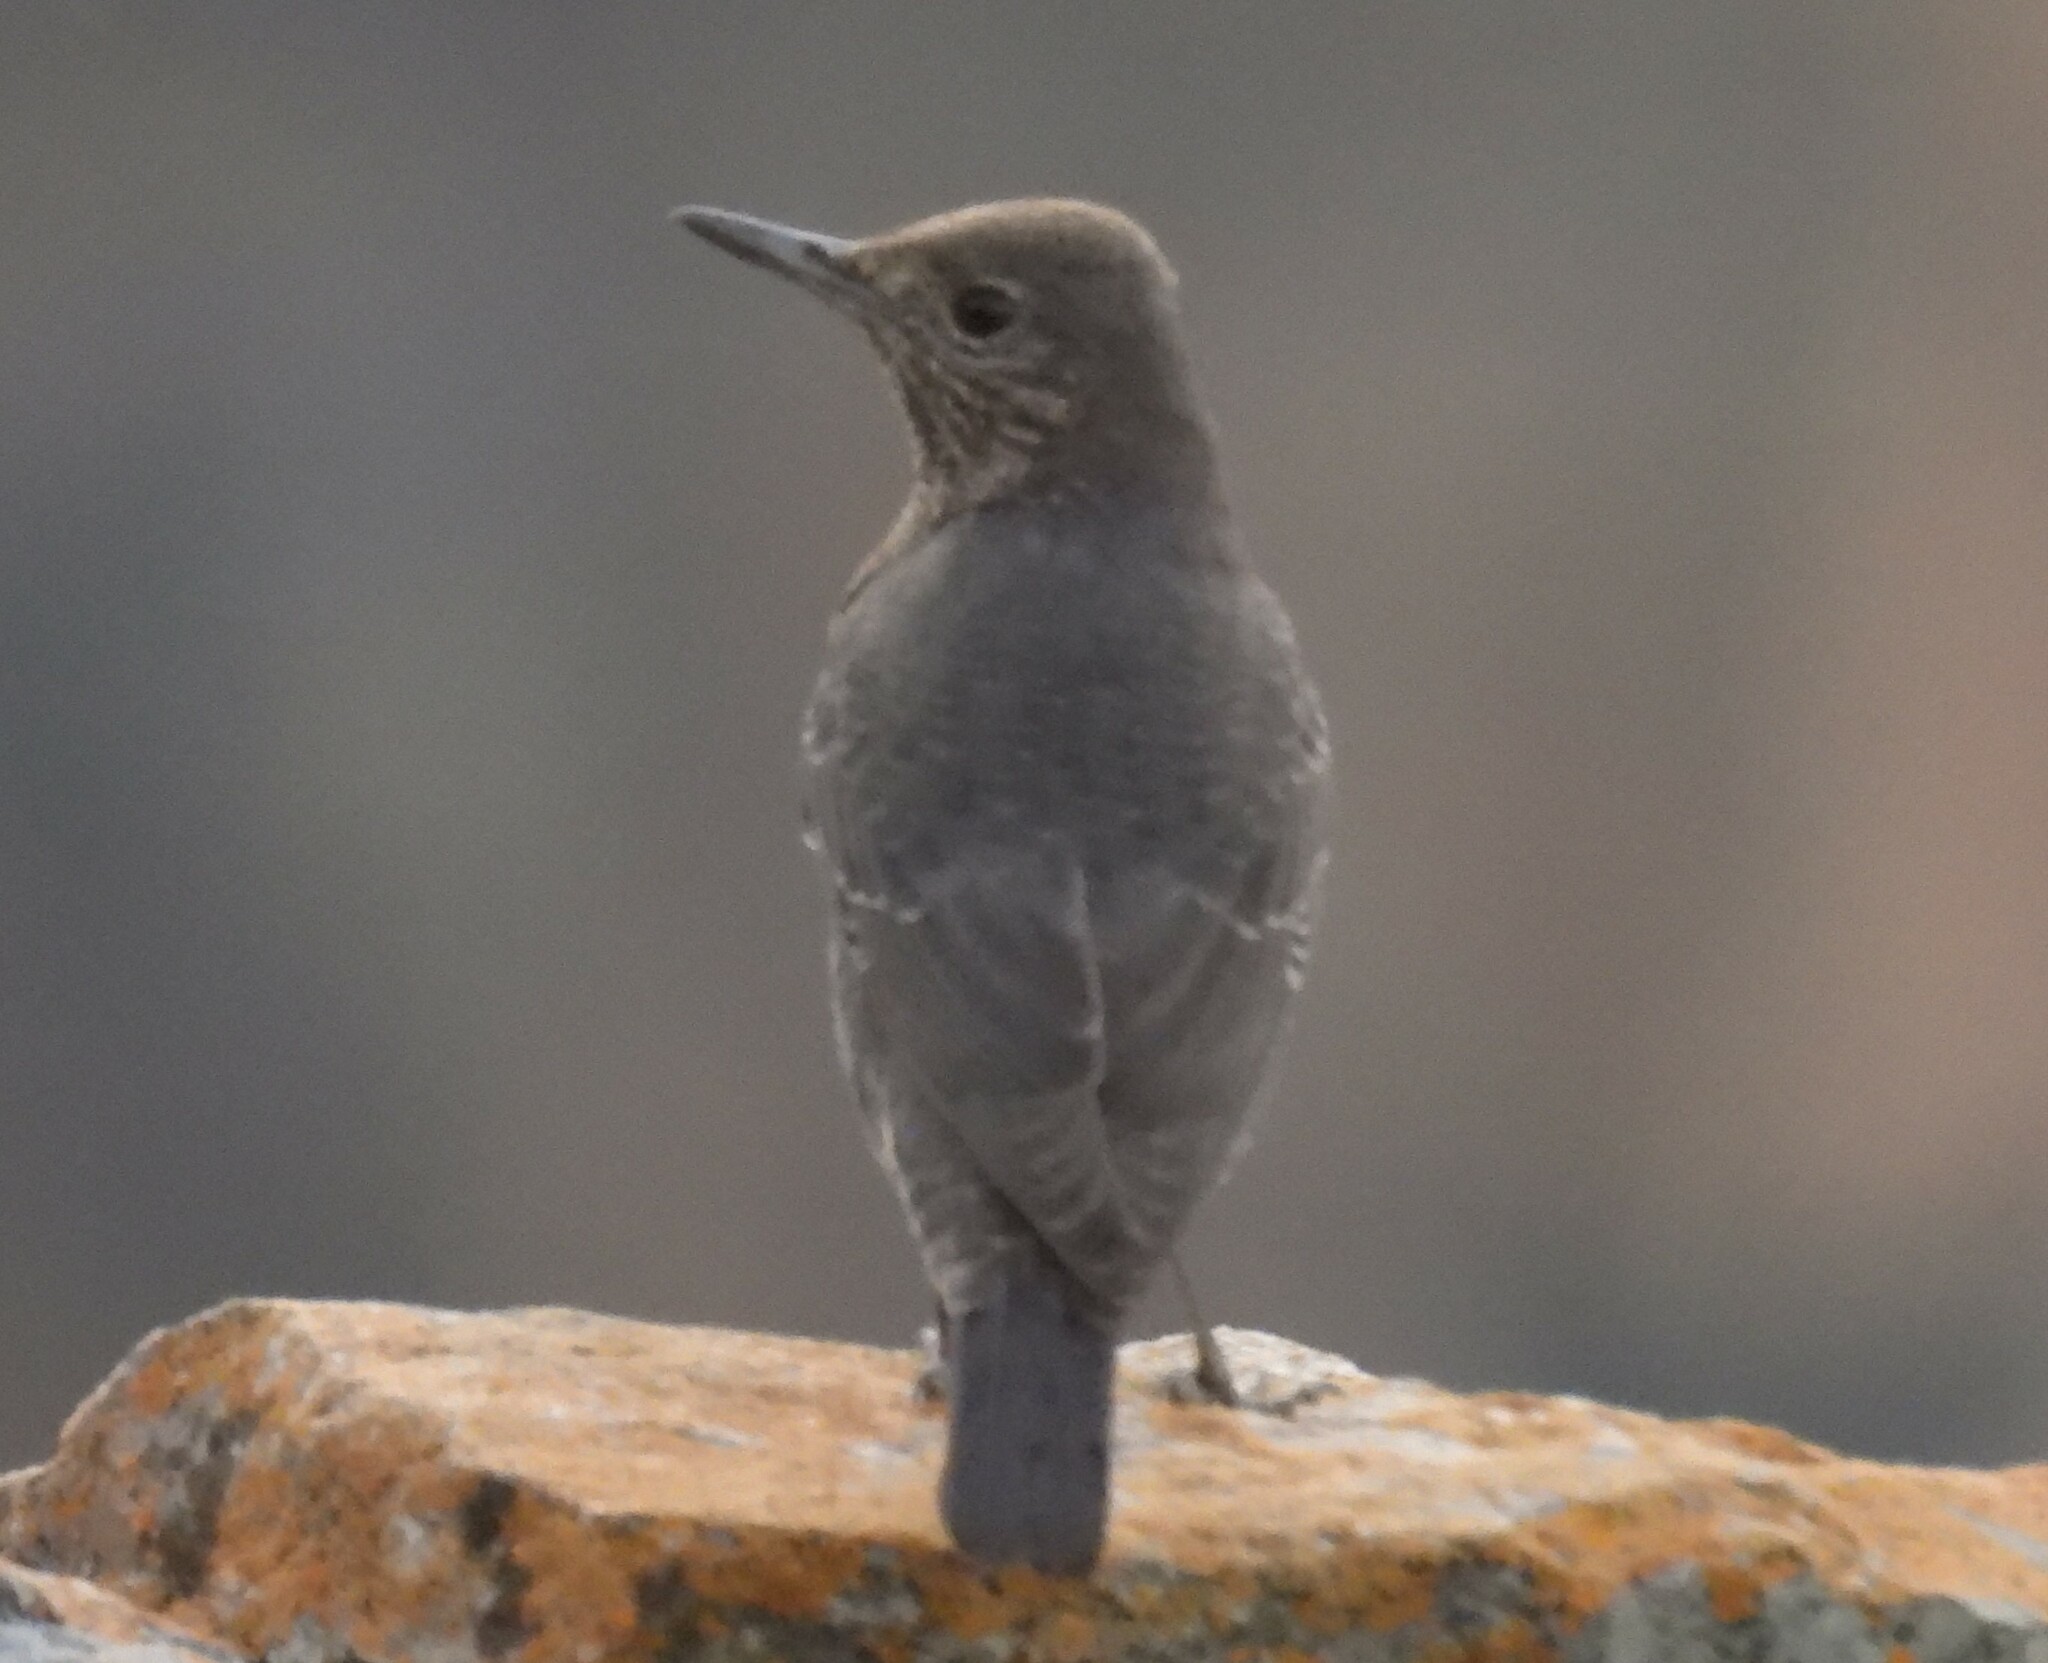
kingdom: Animalia
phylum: Chordata
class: Aves
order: Passeriformes
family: Muscicapidae
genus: Monticola
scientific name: Monticola solitarius
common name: Blue rock thrush
